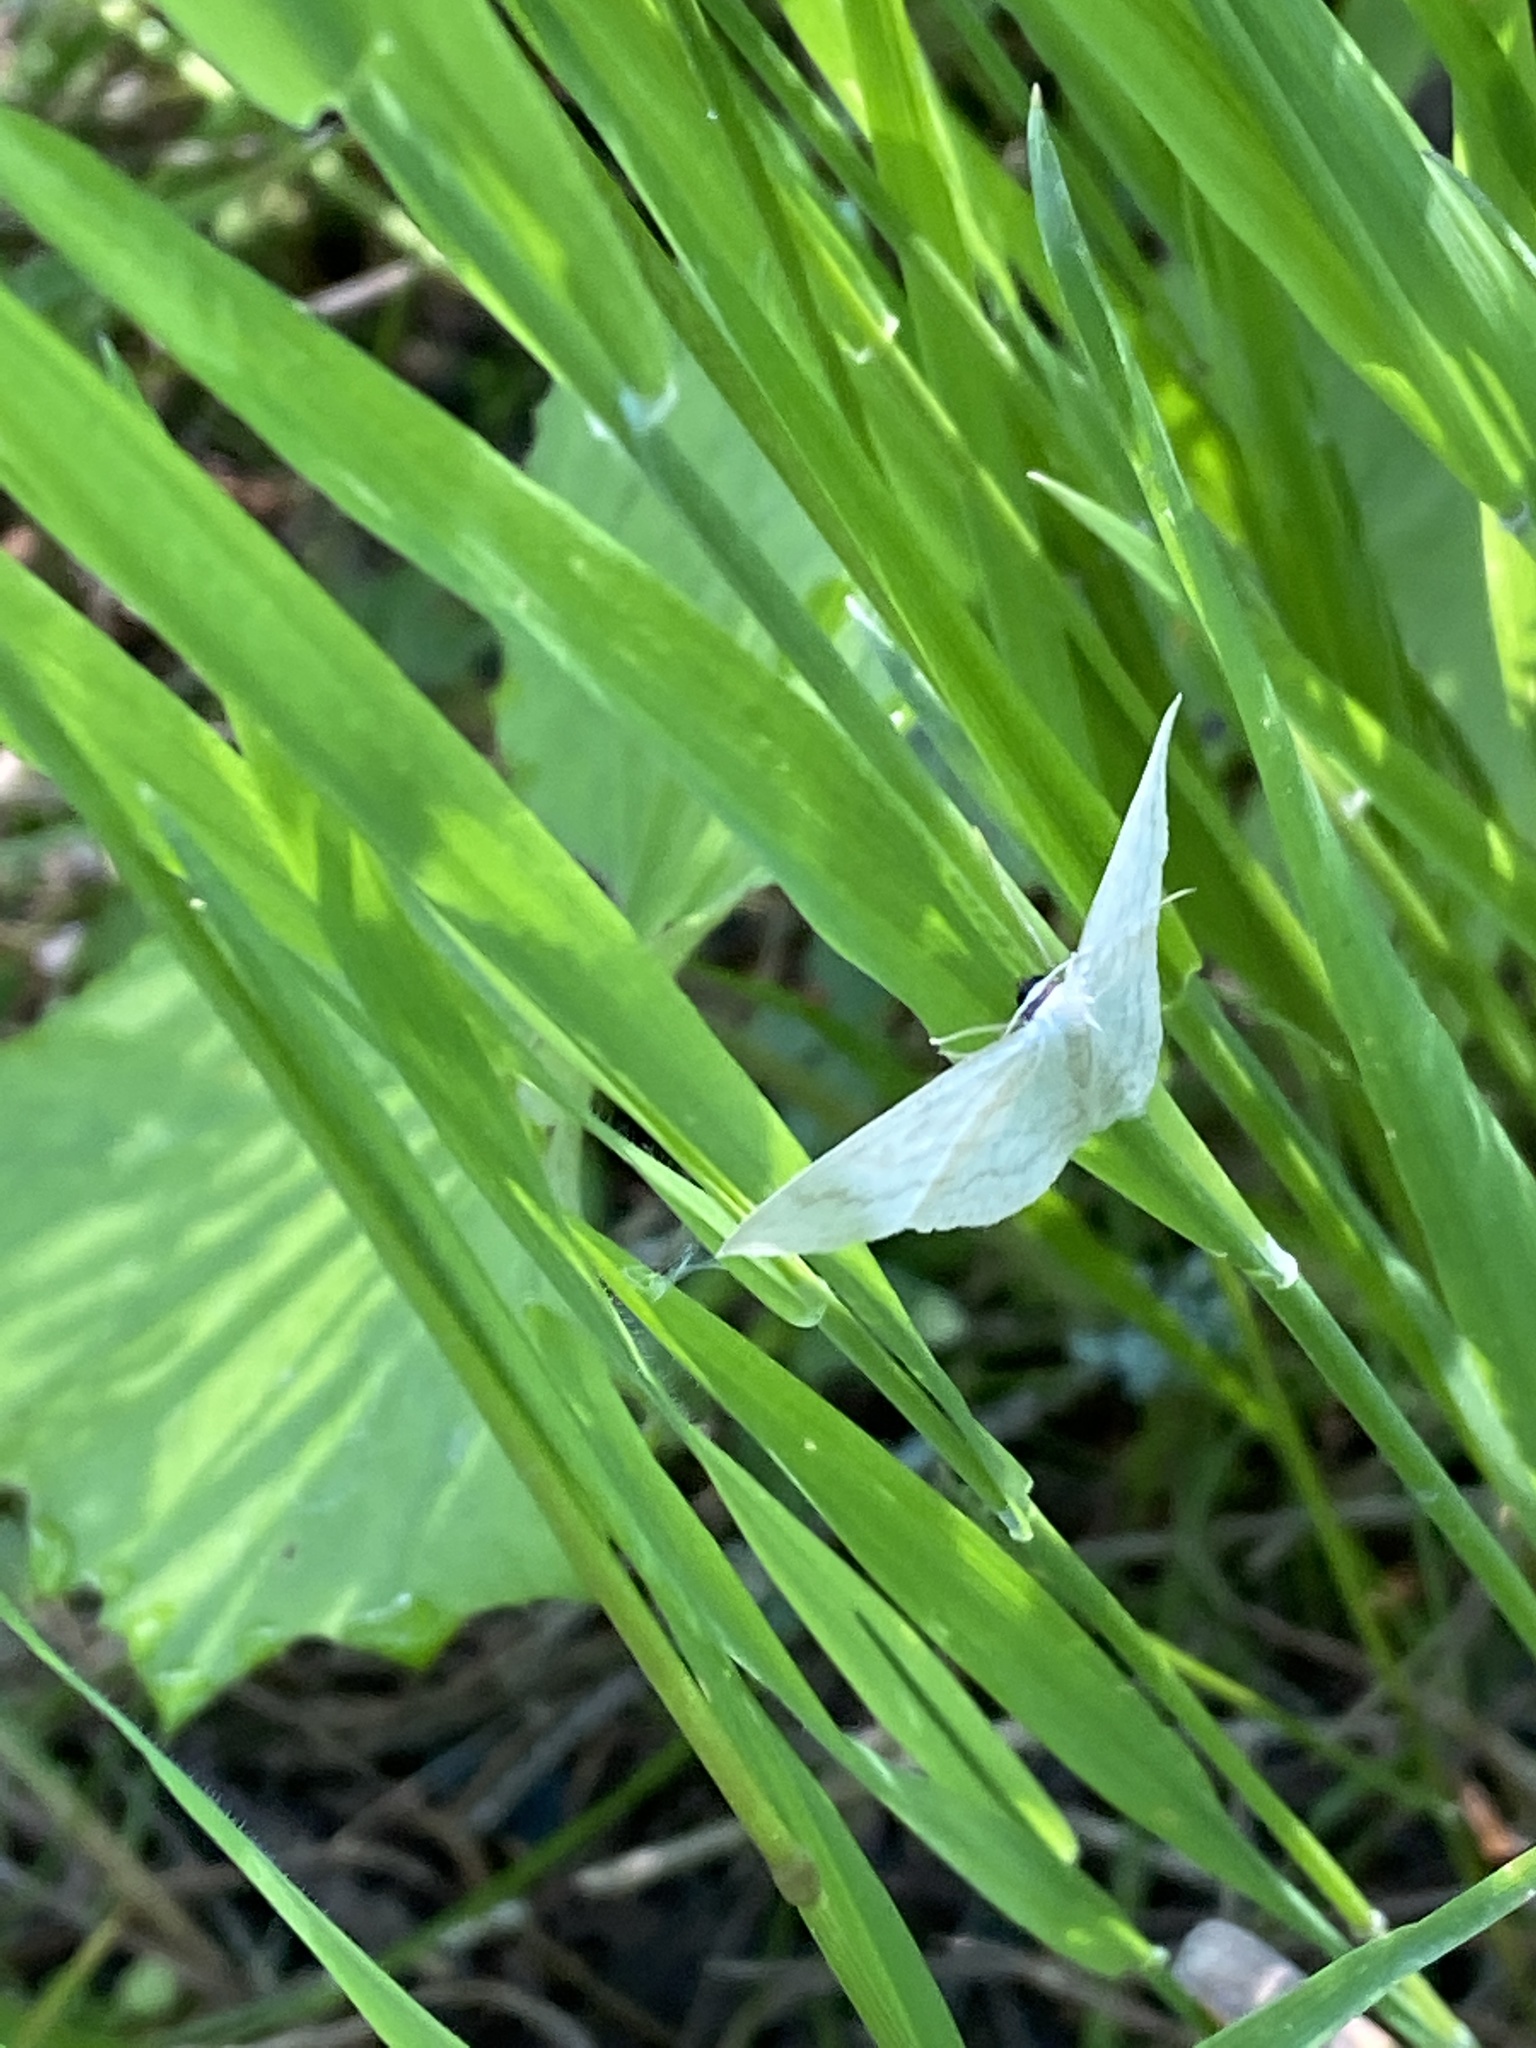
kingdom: Animalia
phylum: Arthropoda
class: Insecta
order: Lepidoptera
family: Geometridae
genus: Scopula
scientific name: Scopula floslactata
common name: Cream wave
